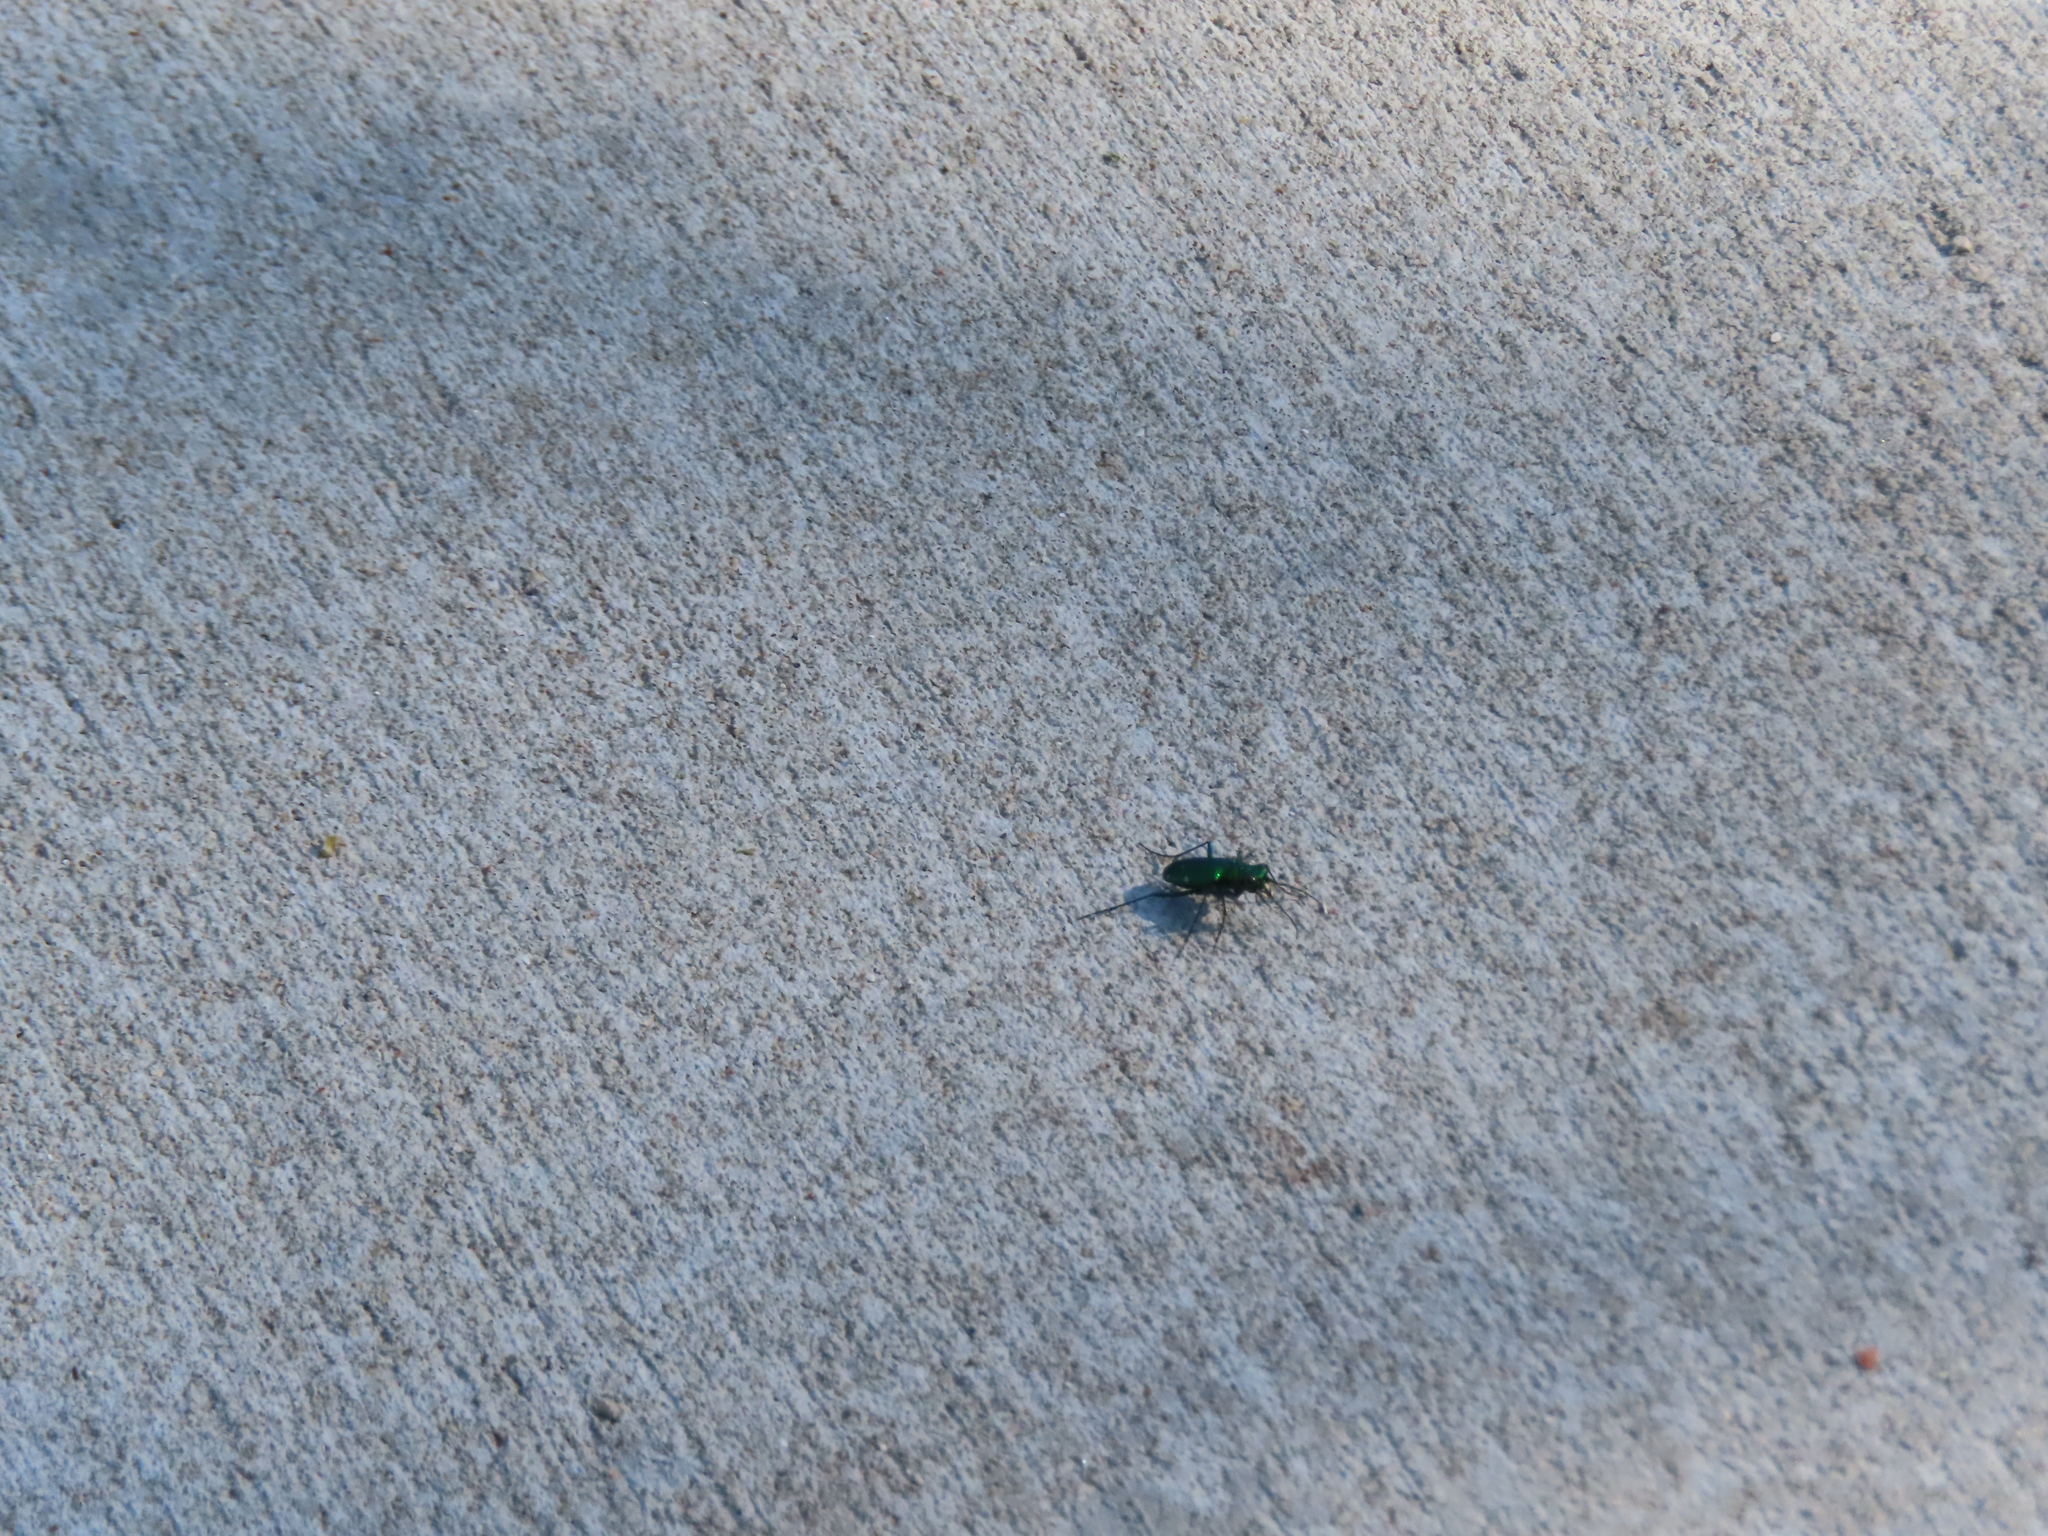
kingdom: Animalia
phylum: Arthropoda
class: Insecta
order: Coleoptera
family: Carabidae
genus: Cicindela
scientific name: Cicindela sexguttata
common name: Six-spotted tiger beetle
